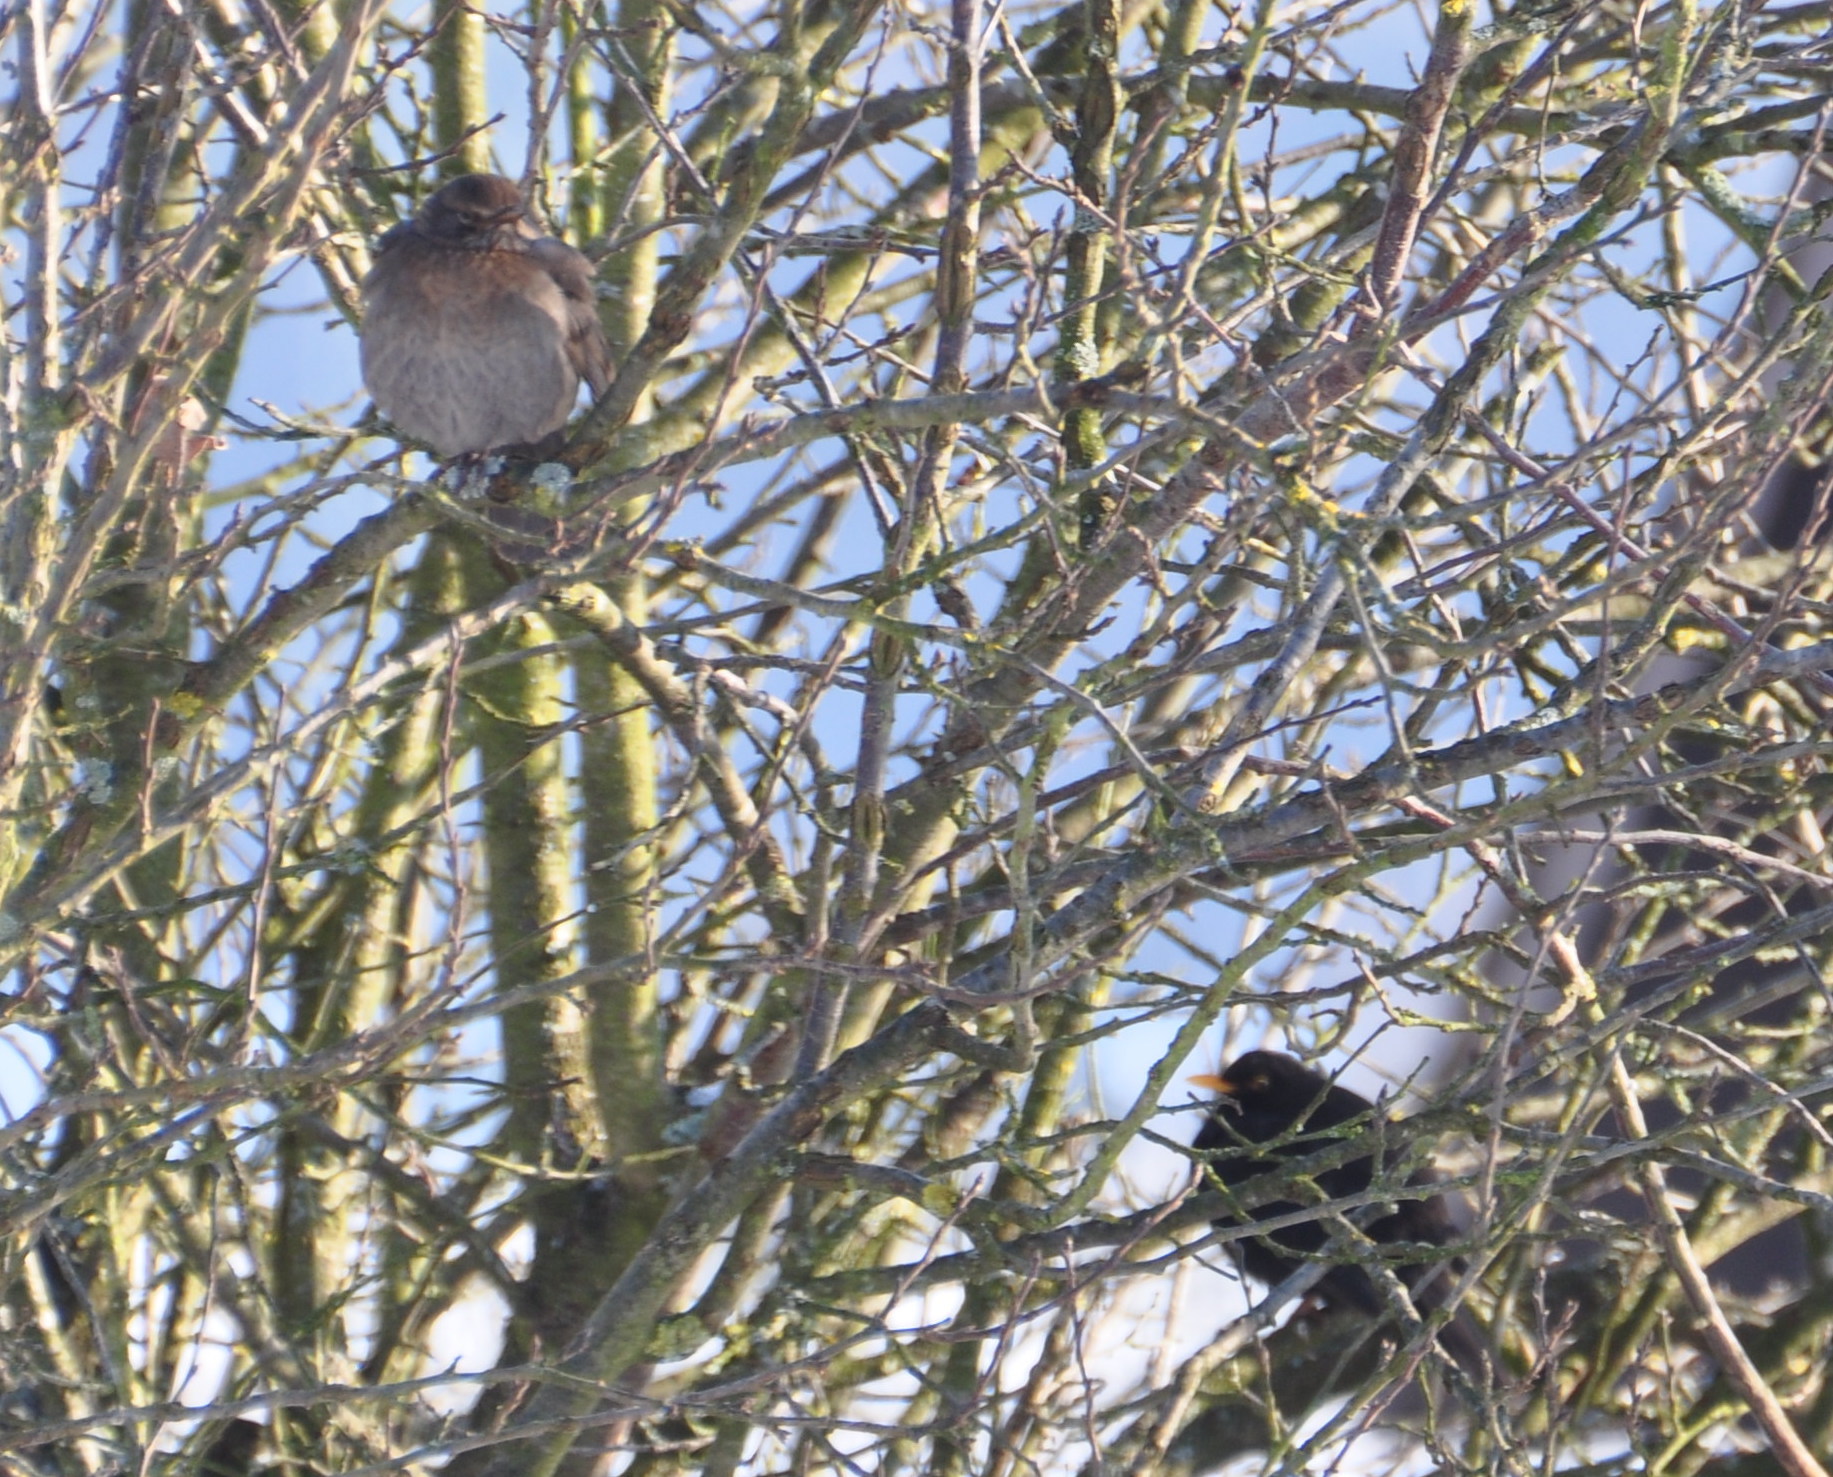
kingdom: Animalia
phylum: Chordata
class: Aves
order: Passeriformes
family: Turdidae
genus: Turdus
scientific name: Turdus merula
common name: Common blackbird
